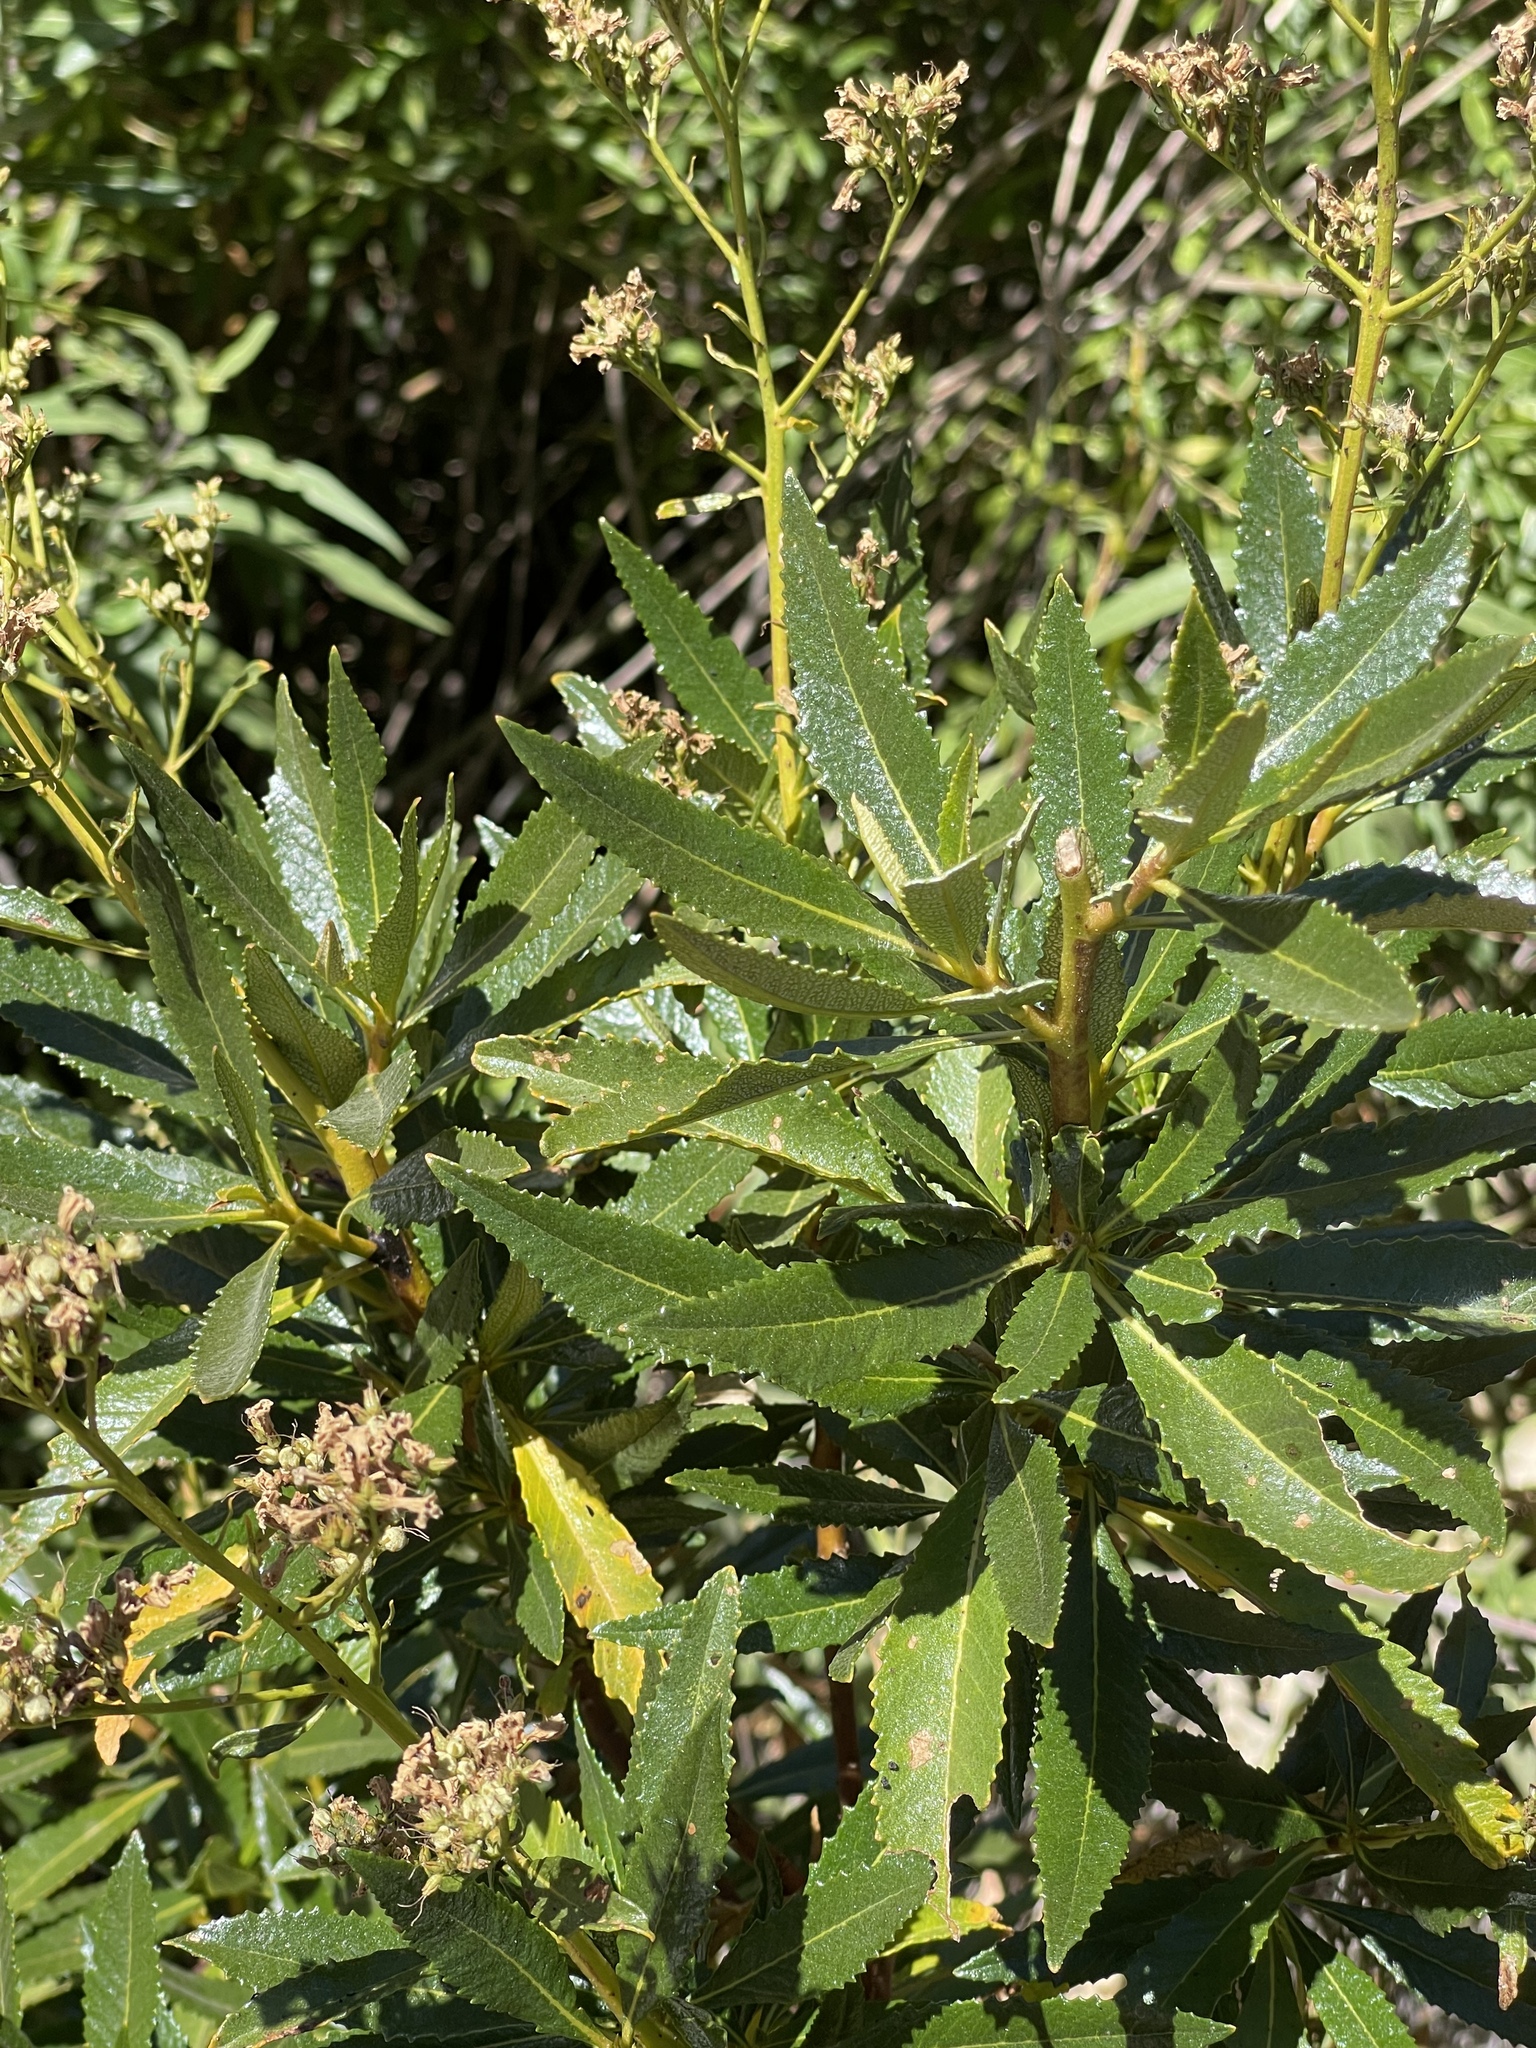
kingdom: Plantae
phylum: Tracheophyta
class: Magnoliopsida
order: Boraginales
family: Namaceae
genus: Eriodictyon
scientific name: Eriodictyon californicum
